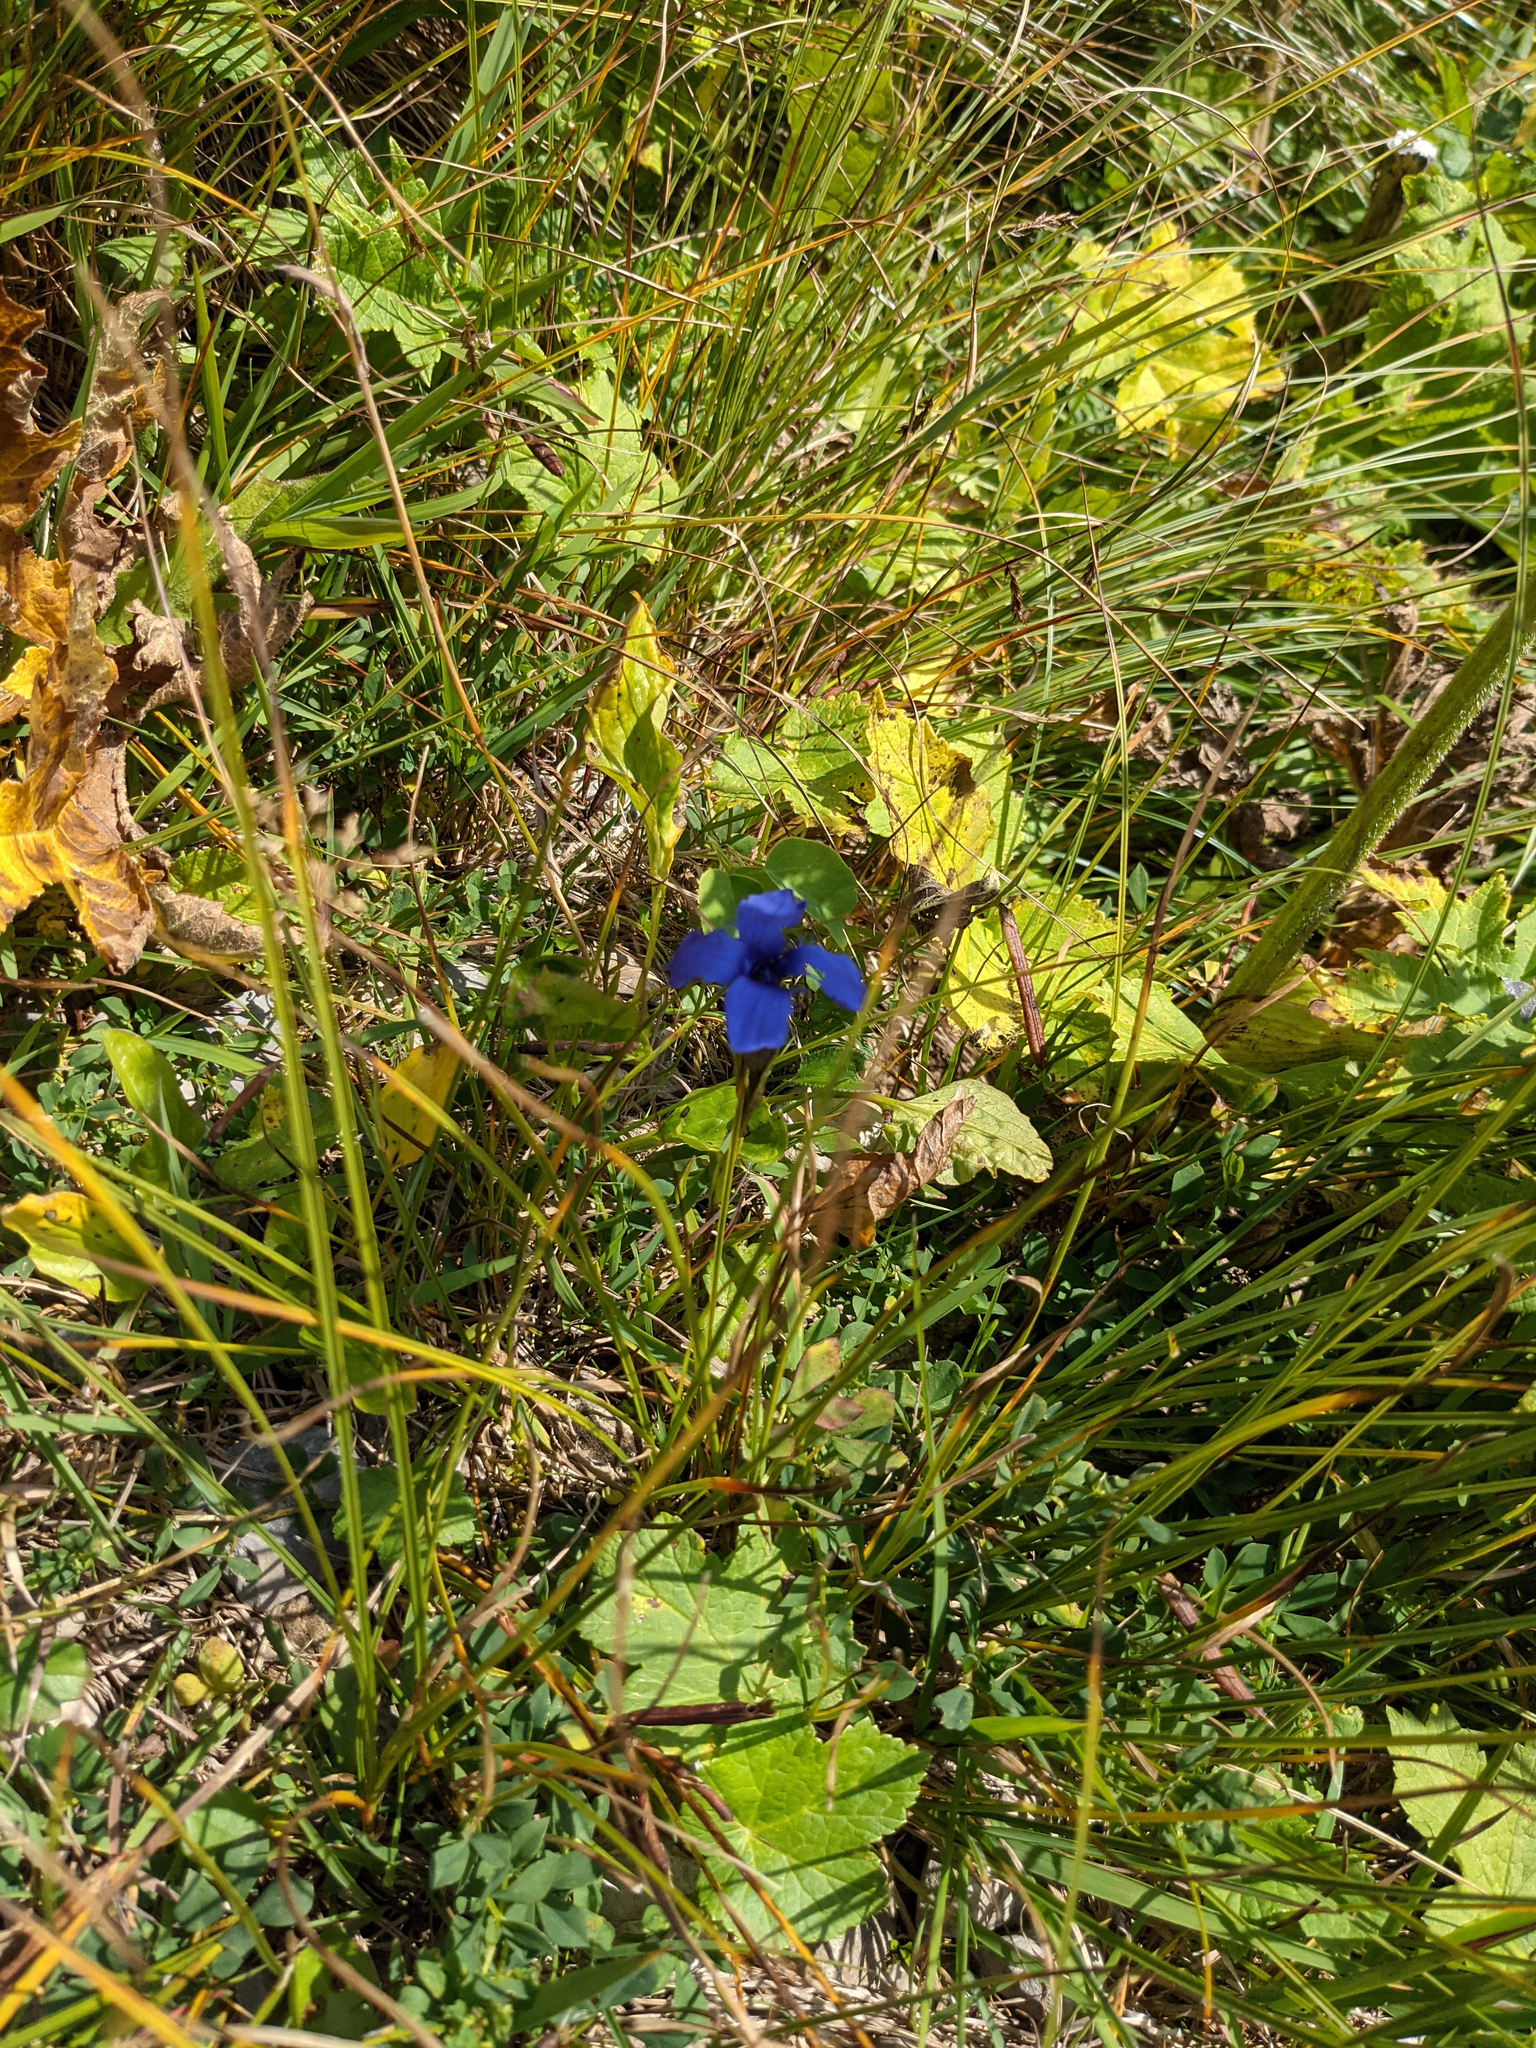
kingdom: Plantae
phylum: Tracheophyta
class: Magnoliopsida
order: Gentianales
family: Gentianaceae
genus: Gentianopsis
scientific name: Gentianopsis ciliata
